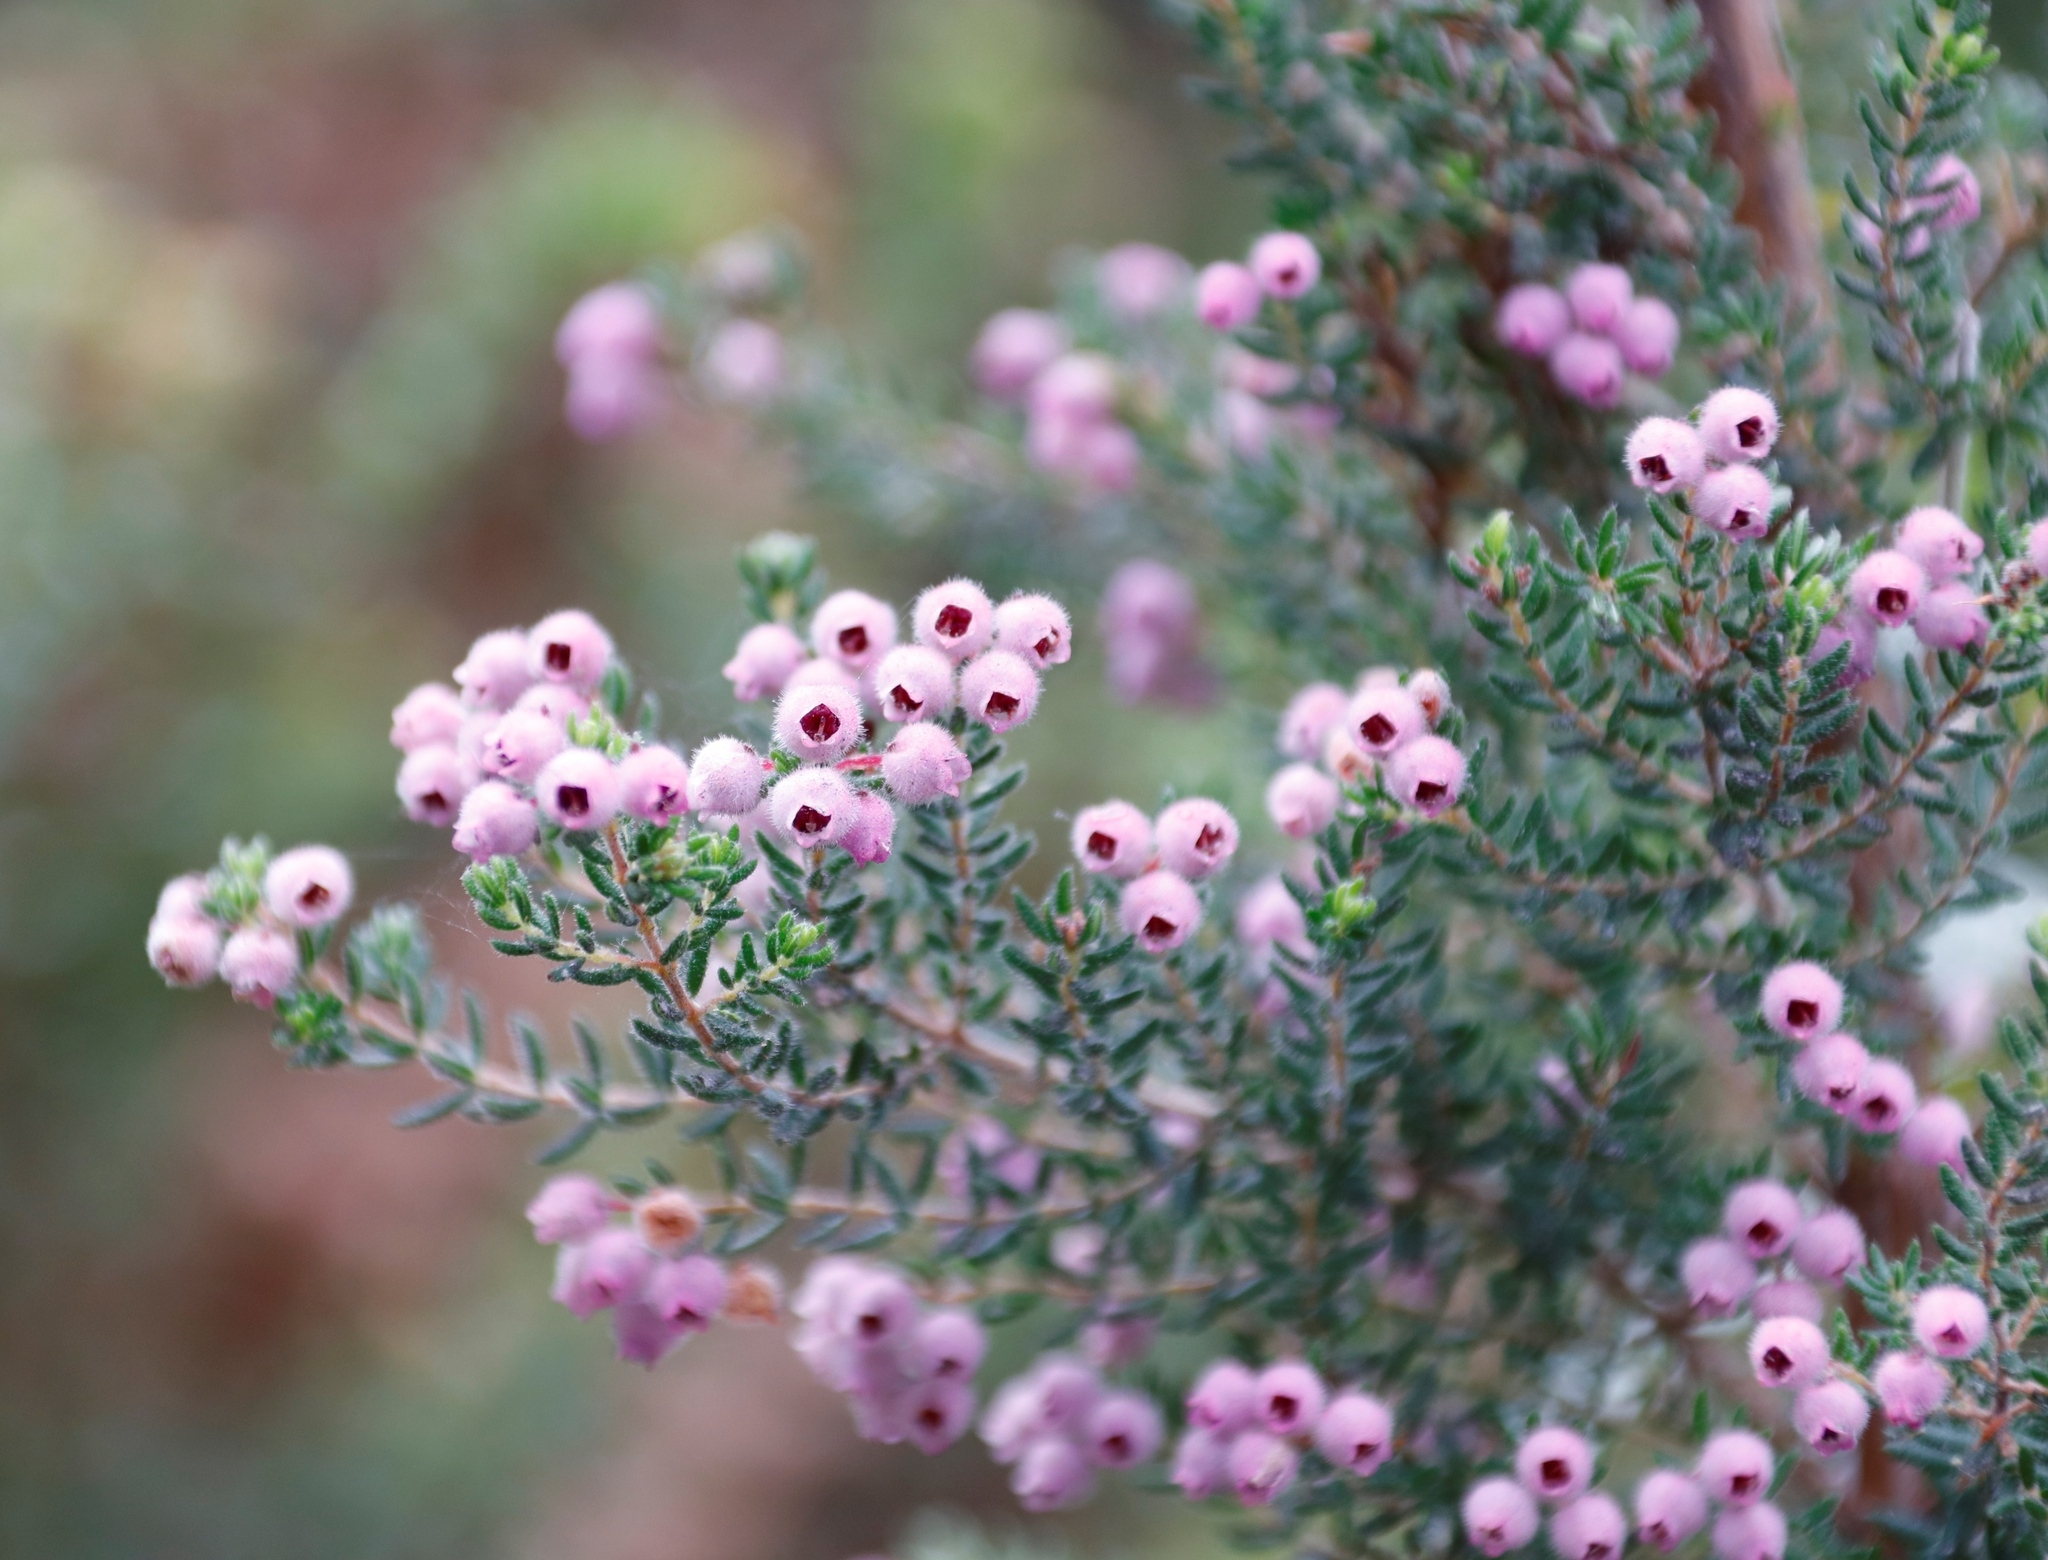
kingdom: Plantae
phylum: Tracheophyta
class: Magnoliopsida
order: Ericales
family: Ericaceae
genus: Erica
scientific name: Erica hirtiflora
